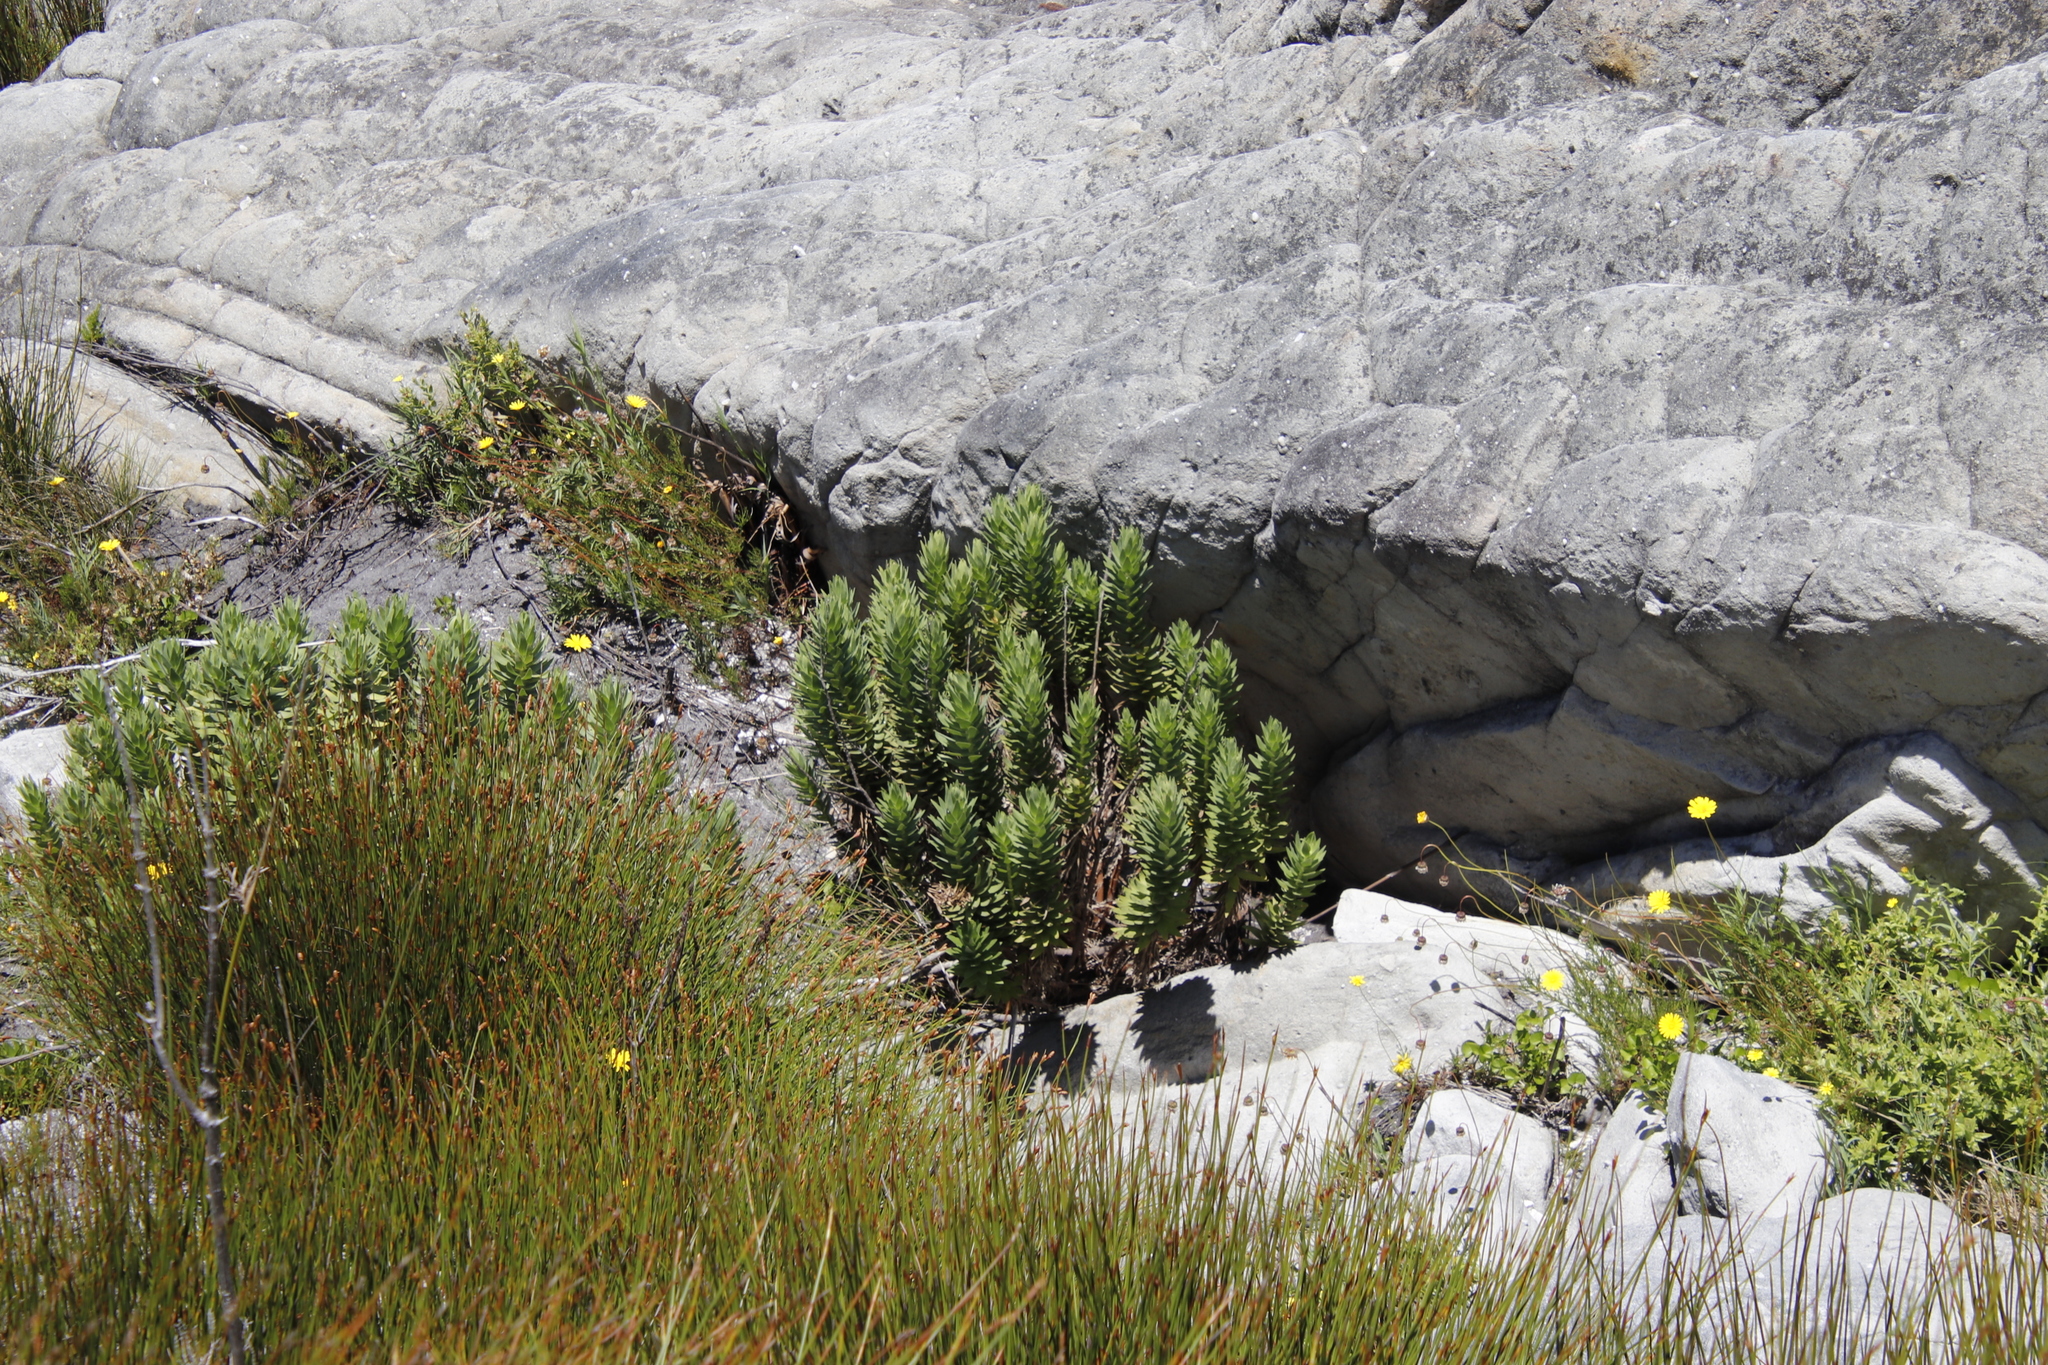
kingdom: Plantae
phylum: Tracheophyta
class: Magnoliopsida
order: Asterales
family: Asteraceae
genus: Osmitopsis
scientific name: Osmitopsis asteriscoides
